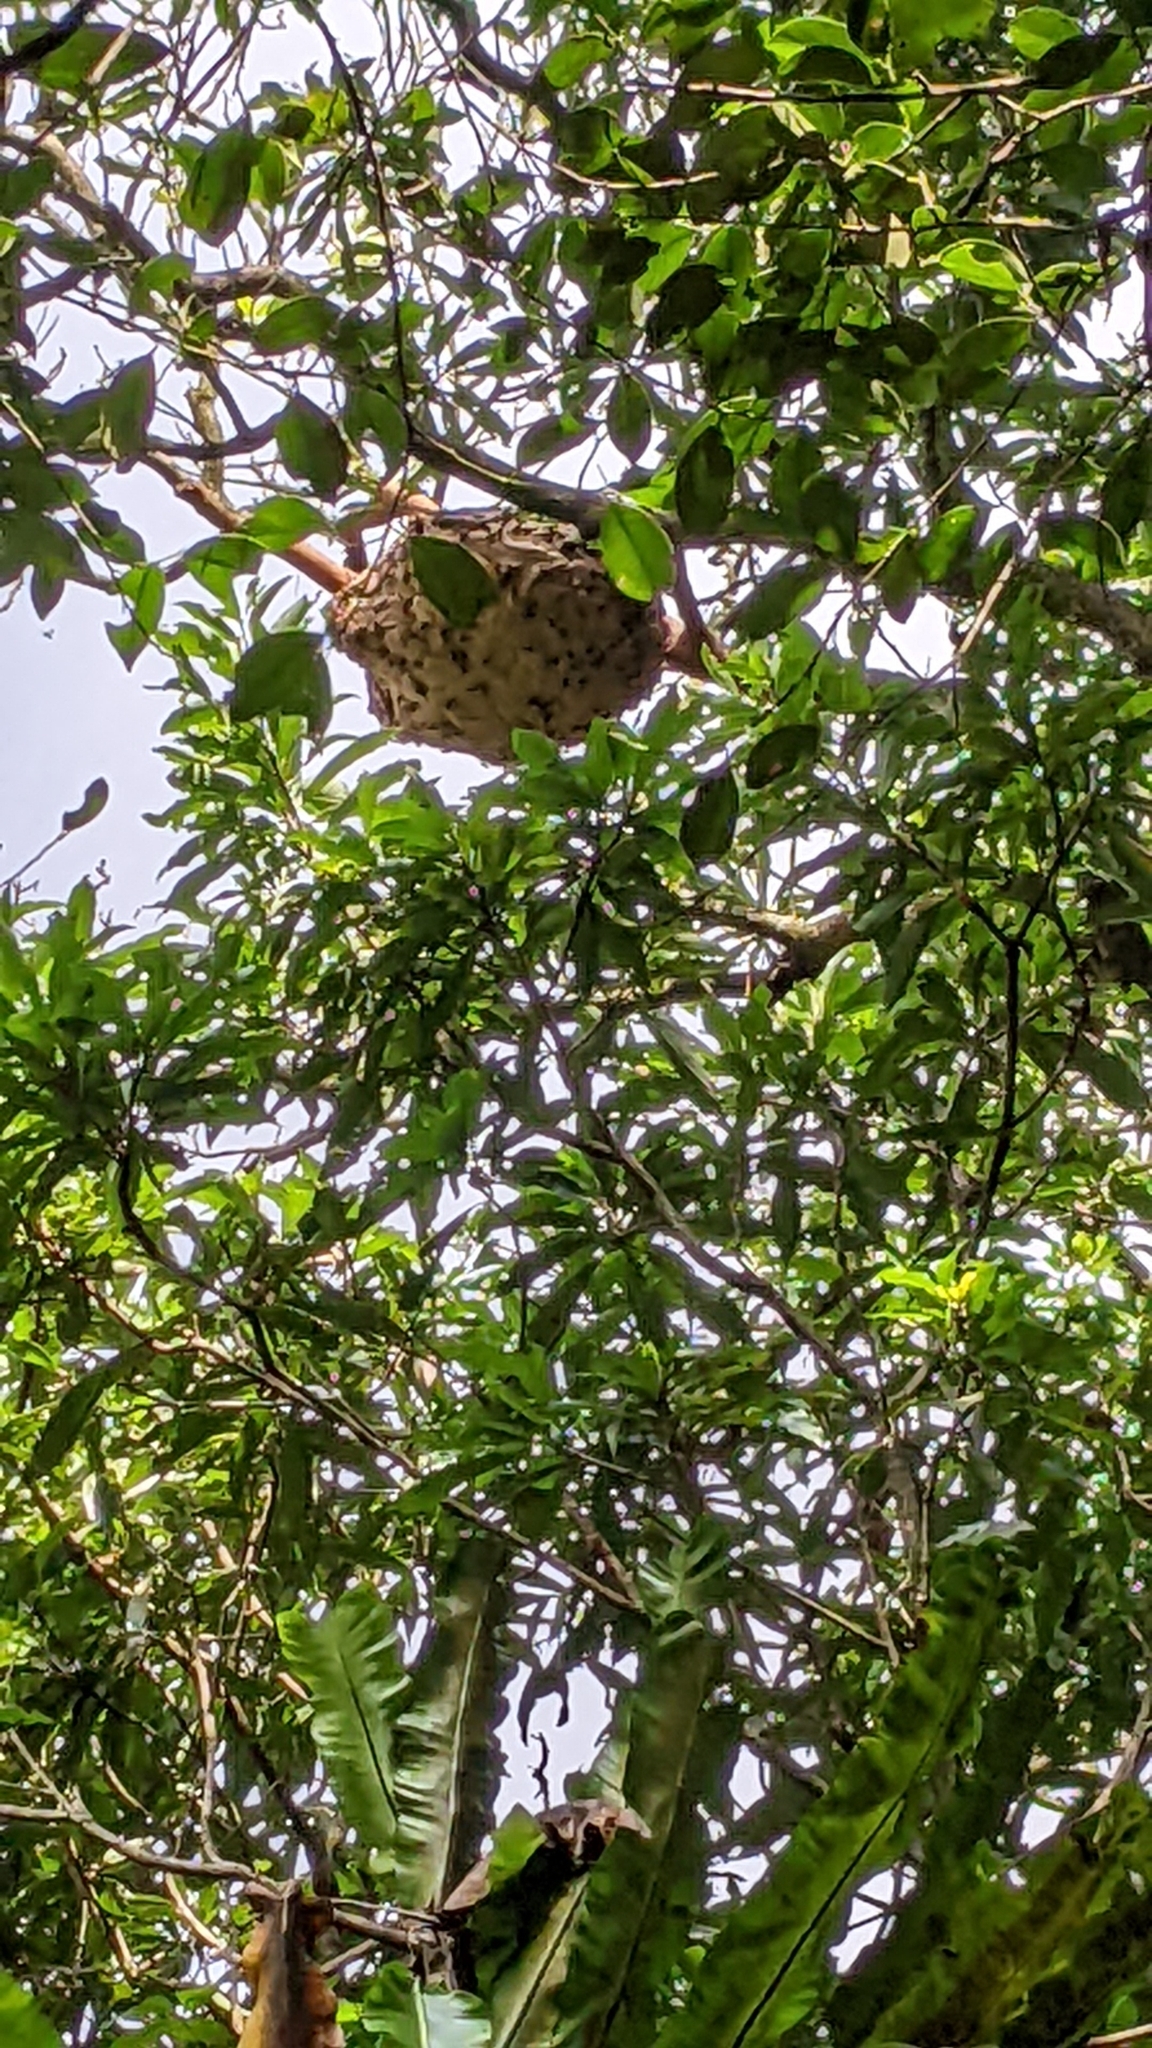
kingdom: Animalia
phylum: Arthropoda
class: Insecta
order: Hymenoptera
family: Vespidae
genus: Vespa
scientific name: Vespa basalis
